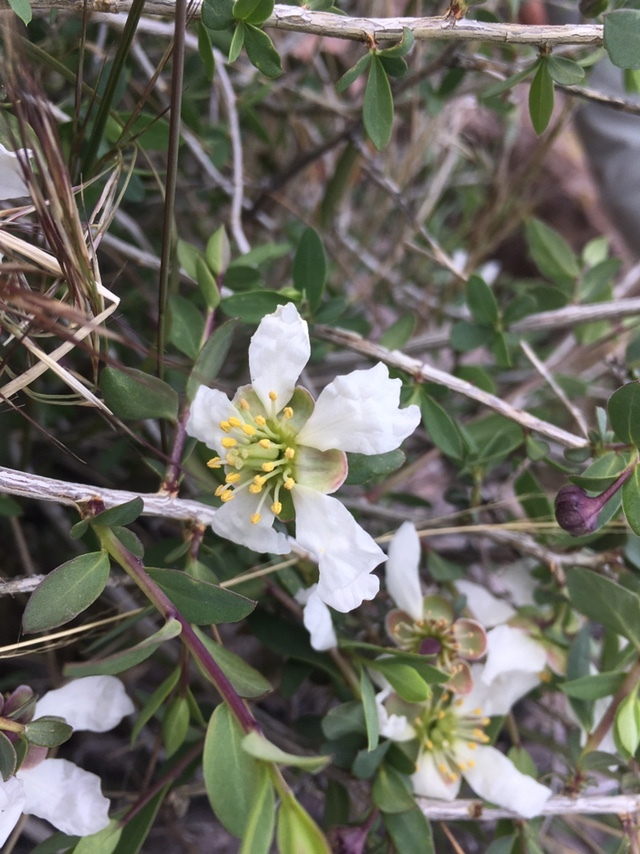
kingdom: Plantae
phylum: Tracheophyta
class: Magnoliopsida
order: Crossosomatales
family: Crossosomataceae
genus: Crossosoma
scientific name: Crossosoma bigelovii
